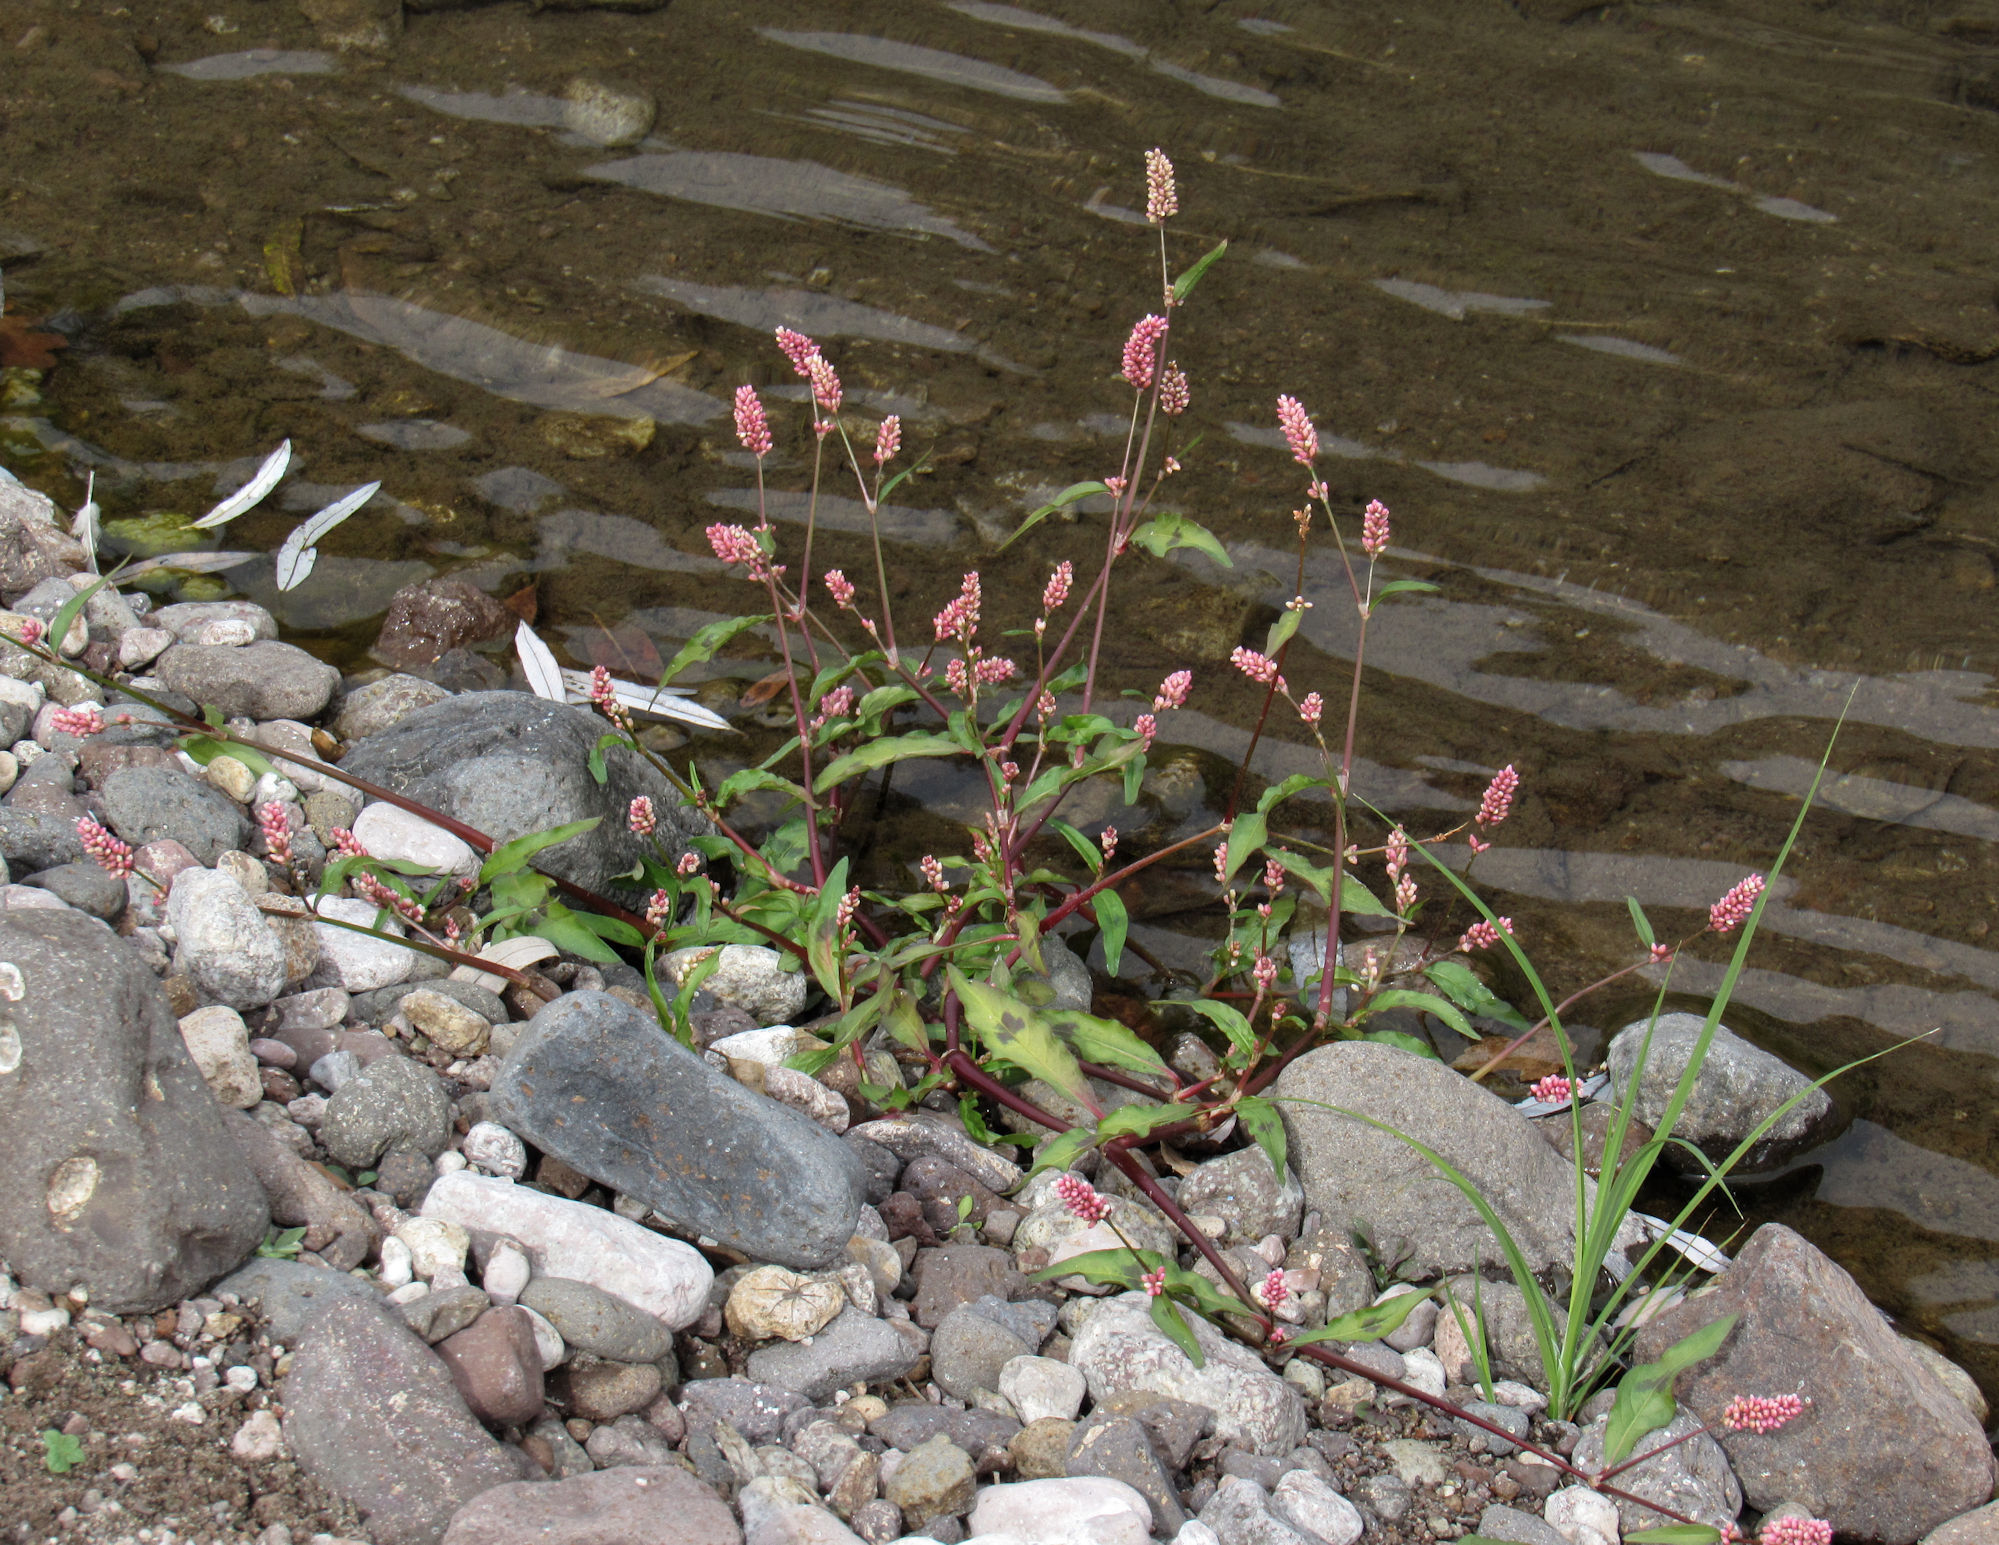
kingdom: Plantae
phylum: Tracheophyta
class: Magnoliopsida
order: Caryophyllales
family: Polygonaceae
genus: Persicaria
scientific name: Persicaria maculosa
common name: Redshank
